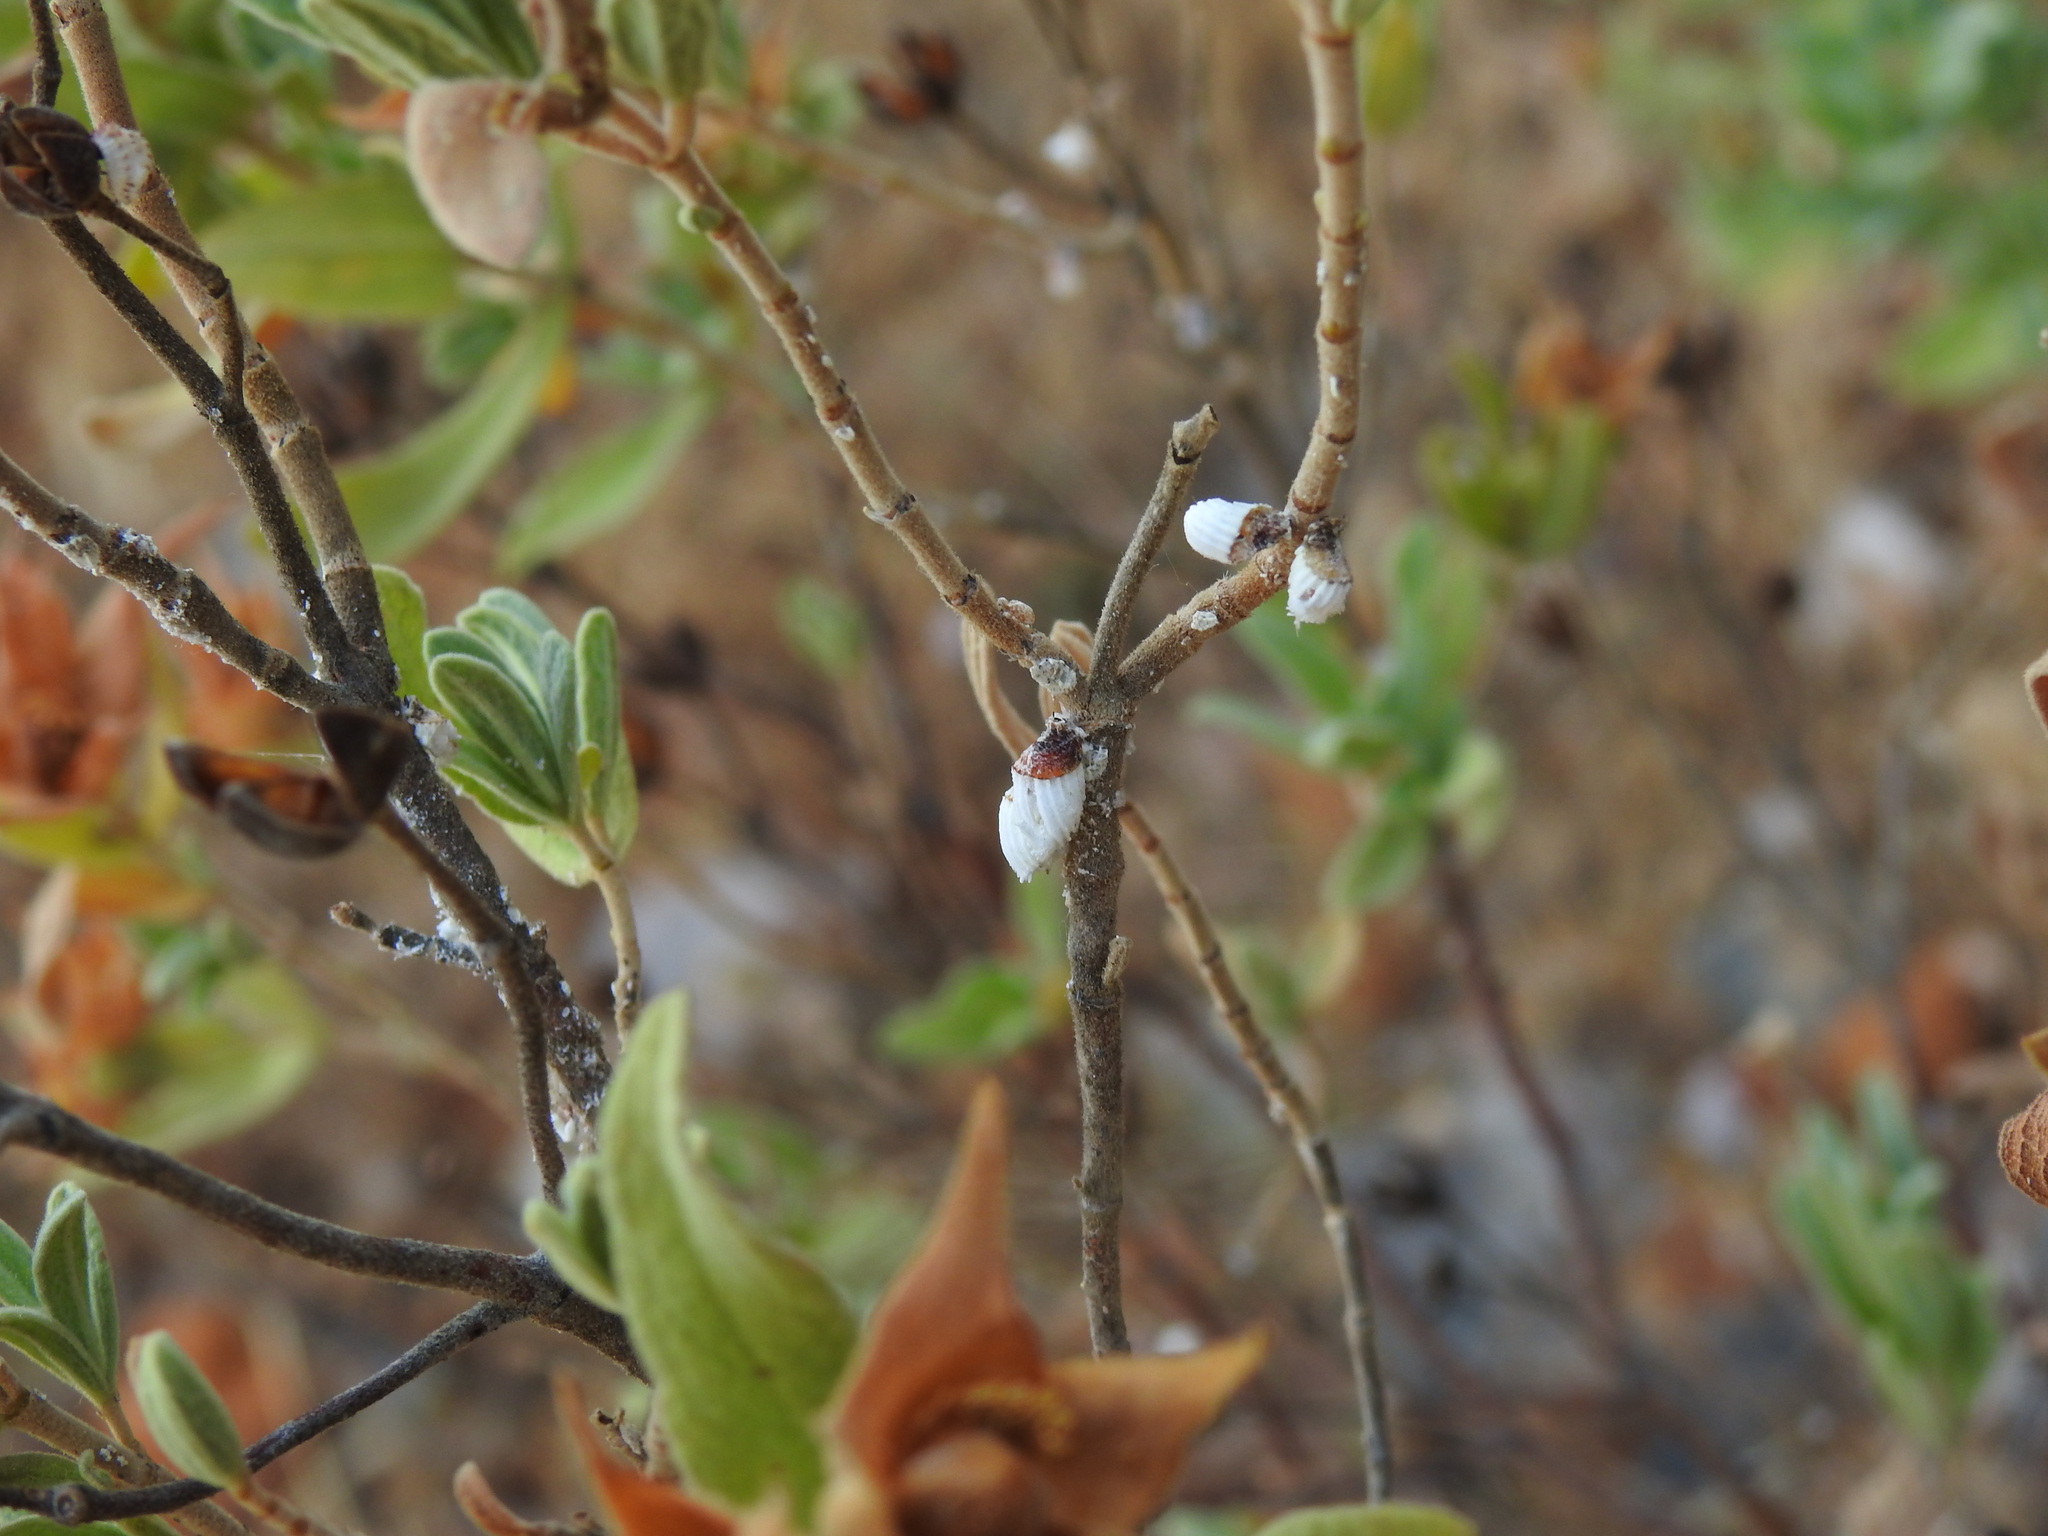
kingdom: Animalia
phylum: Arthropoda
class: Insecta
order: Hemiptera
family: Margarodidae
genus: Icerya
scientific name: Icerya purchasi
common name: Cottony cushion scale
